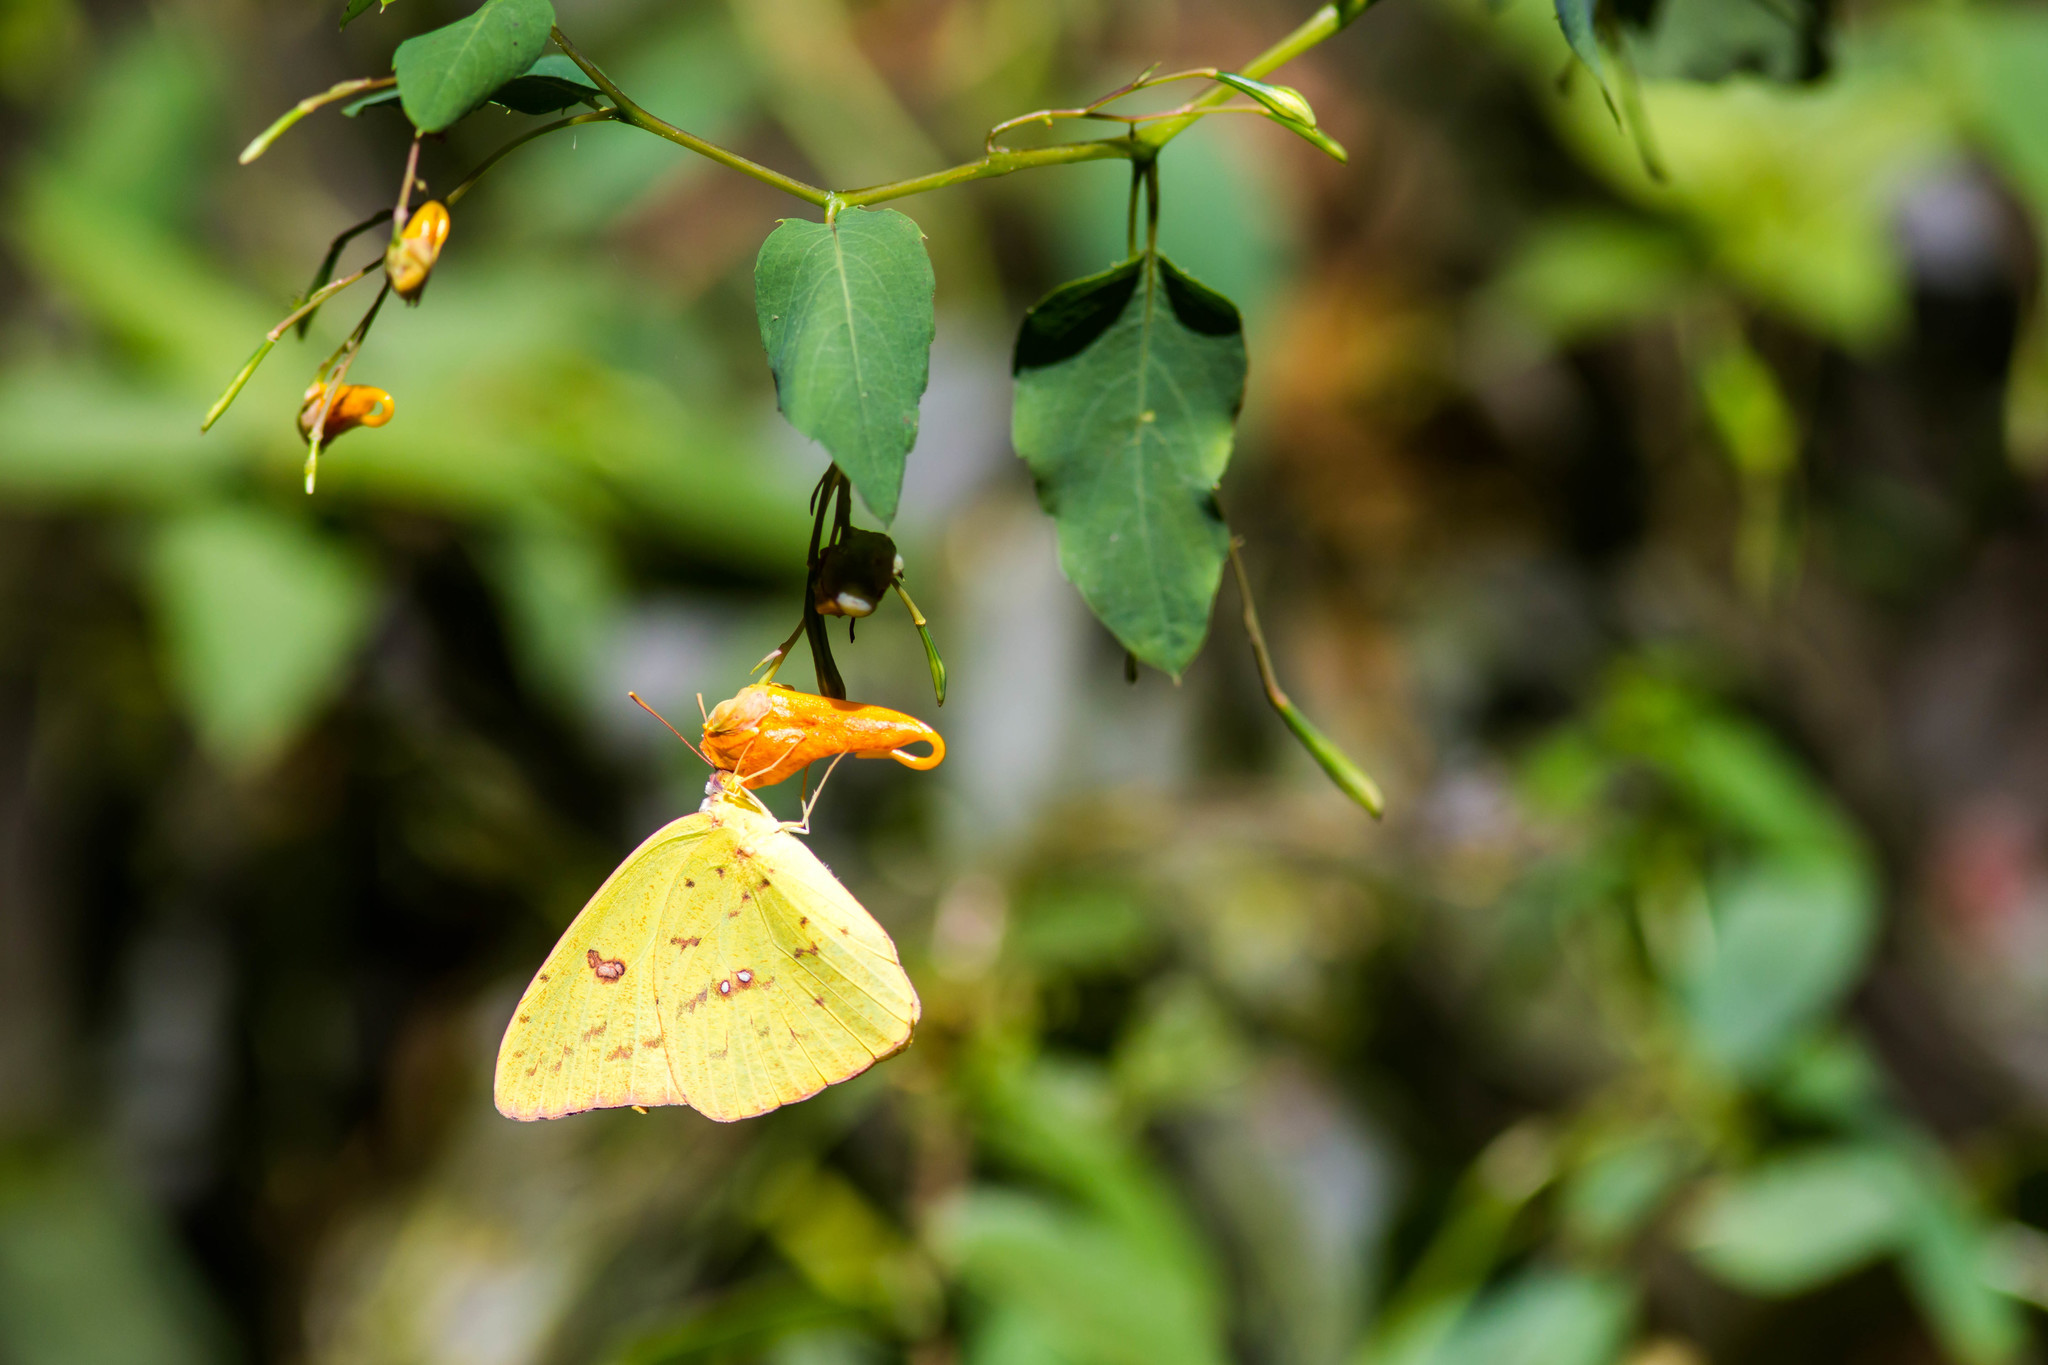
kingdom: Animalia
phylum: Arthropoda
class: Insecta
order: Lepidoptera
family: Pieridae
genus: Phoebis
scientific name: Phoebis sennae
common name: Cloudless sulphur
